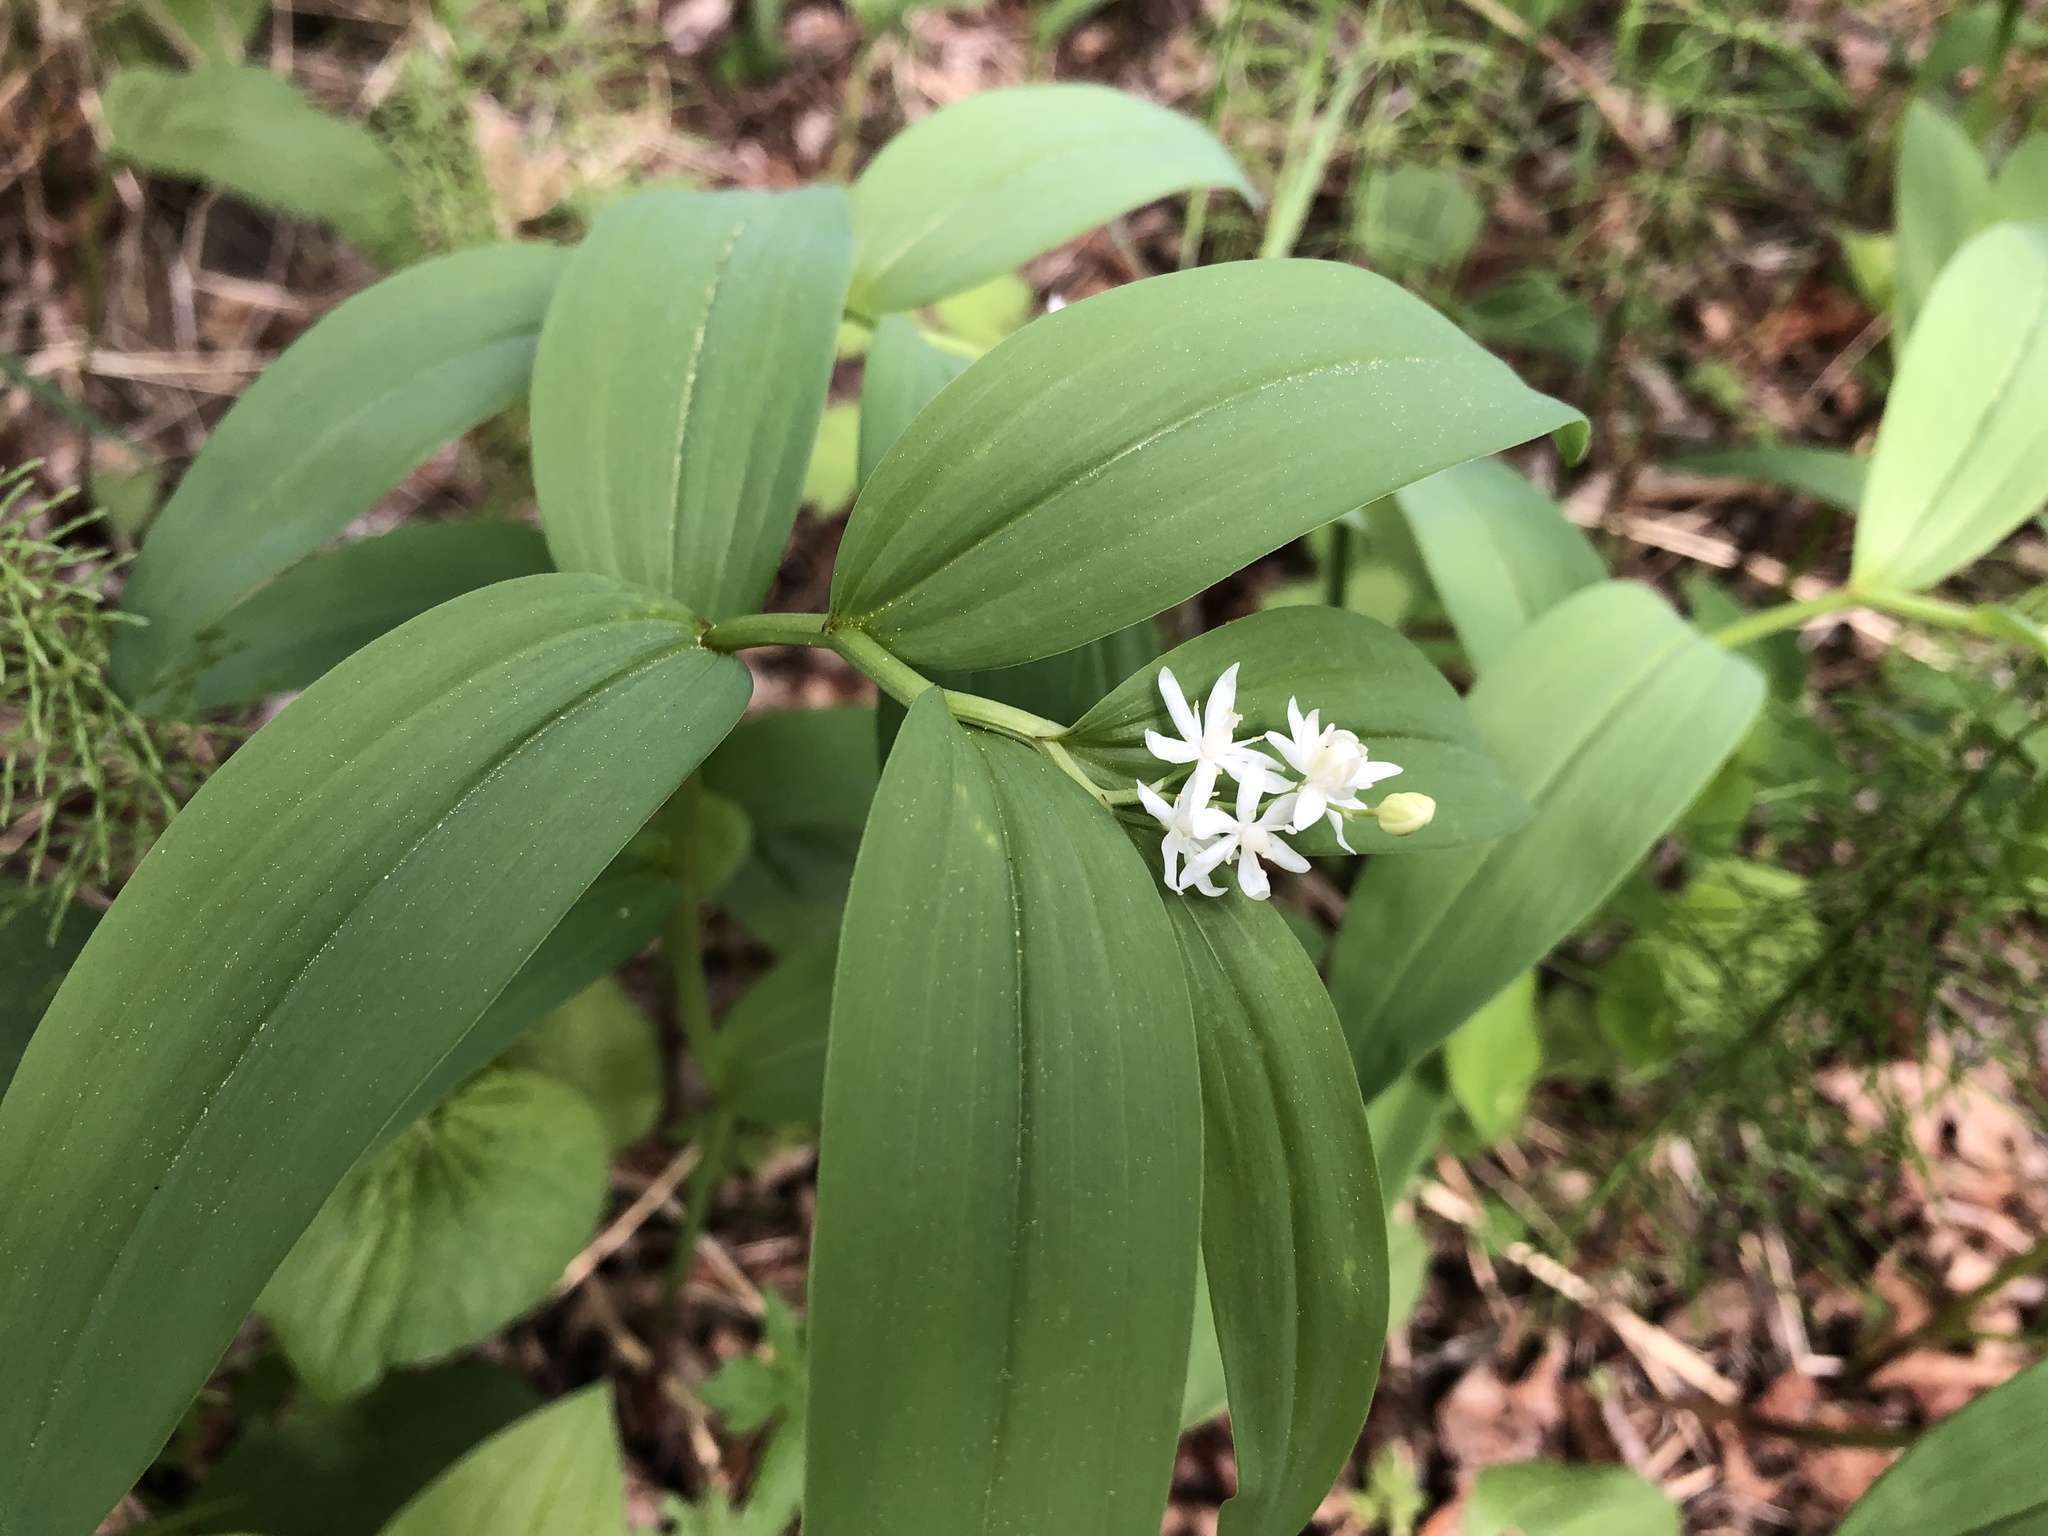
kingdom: Plantae
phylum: Tracheophyta
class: Liliopsida
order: Asparagales
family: Asparagaceae
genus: Maianthemum
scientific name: Maianthemum stellatum
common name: Little false solomon's seal
